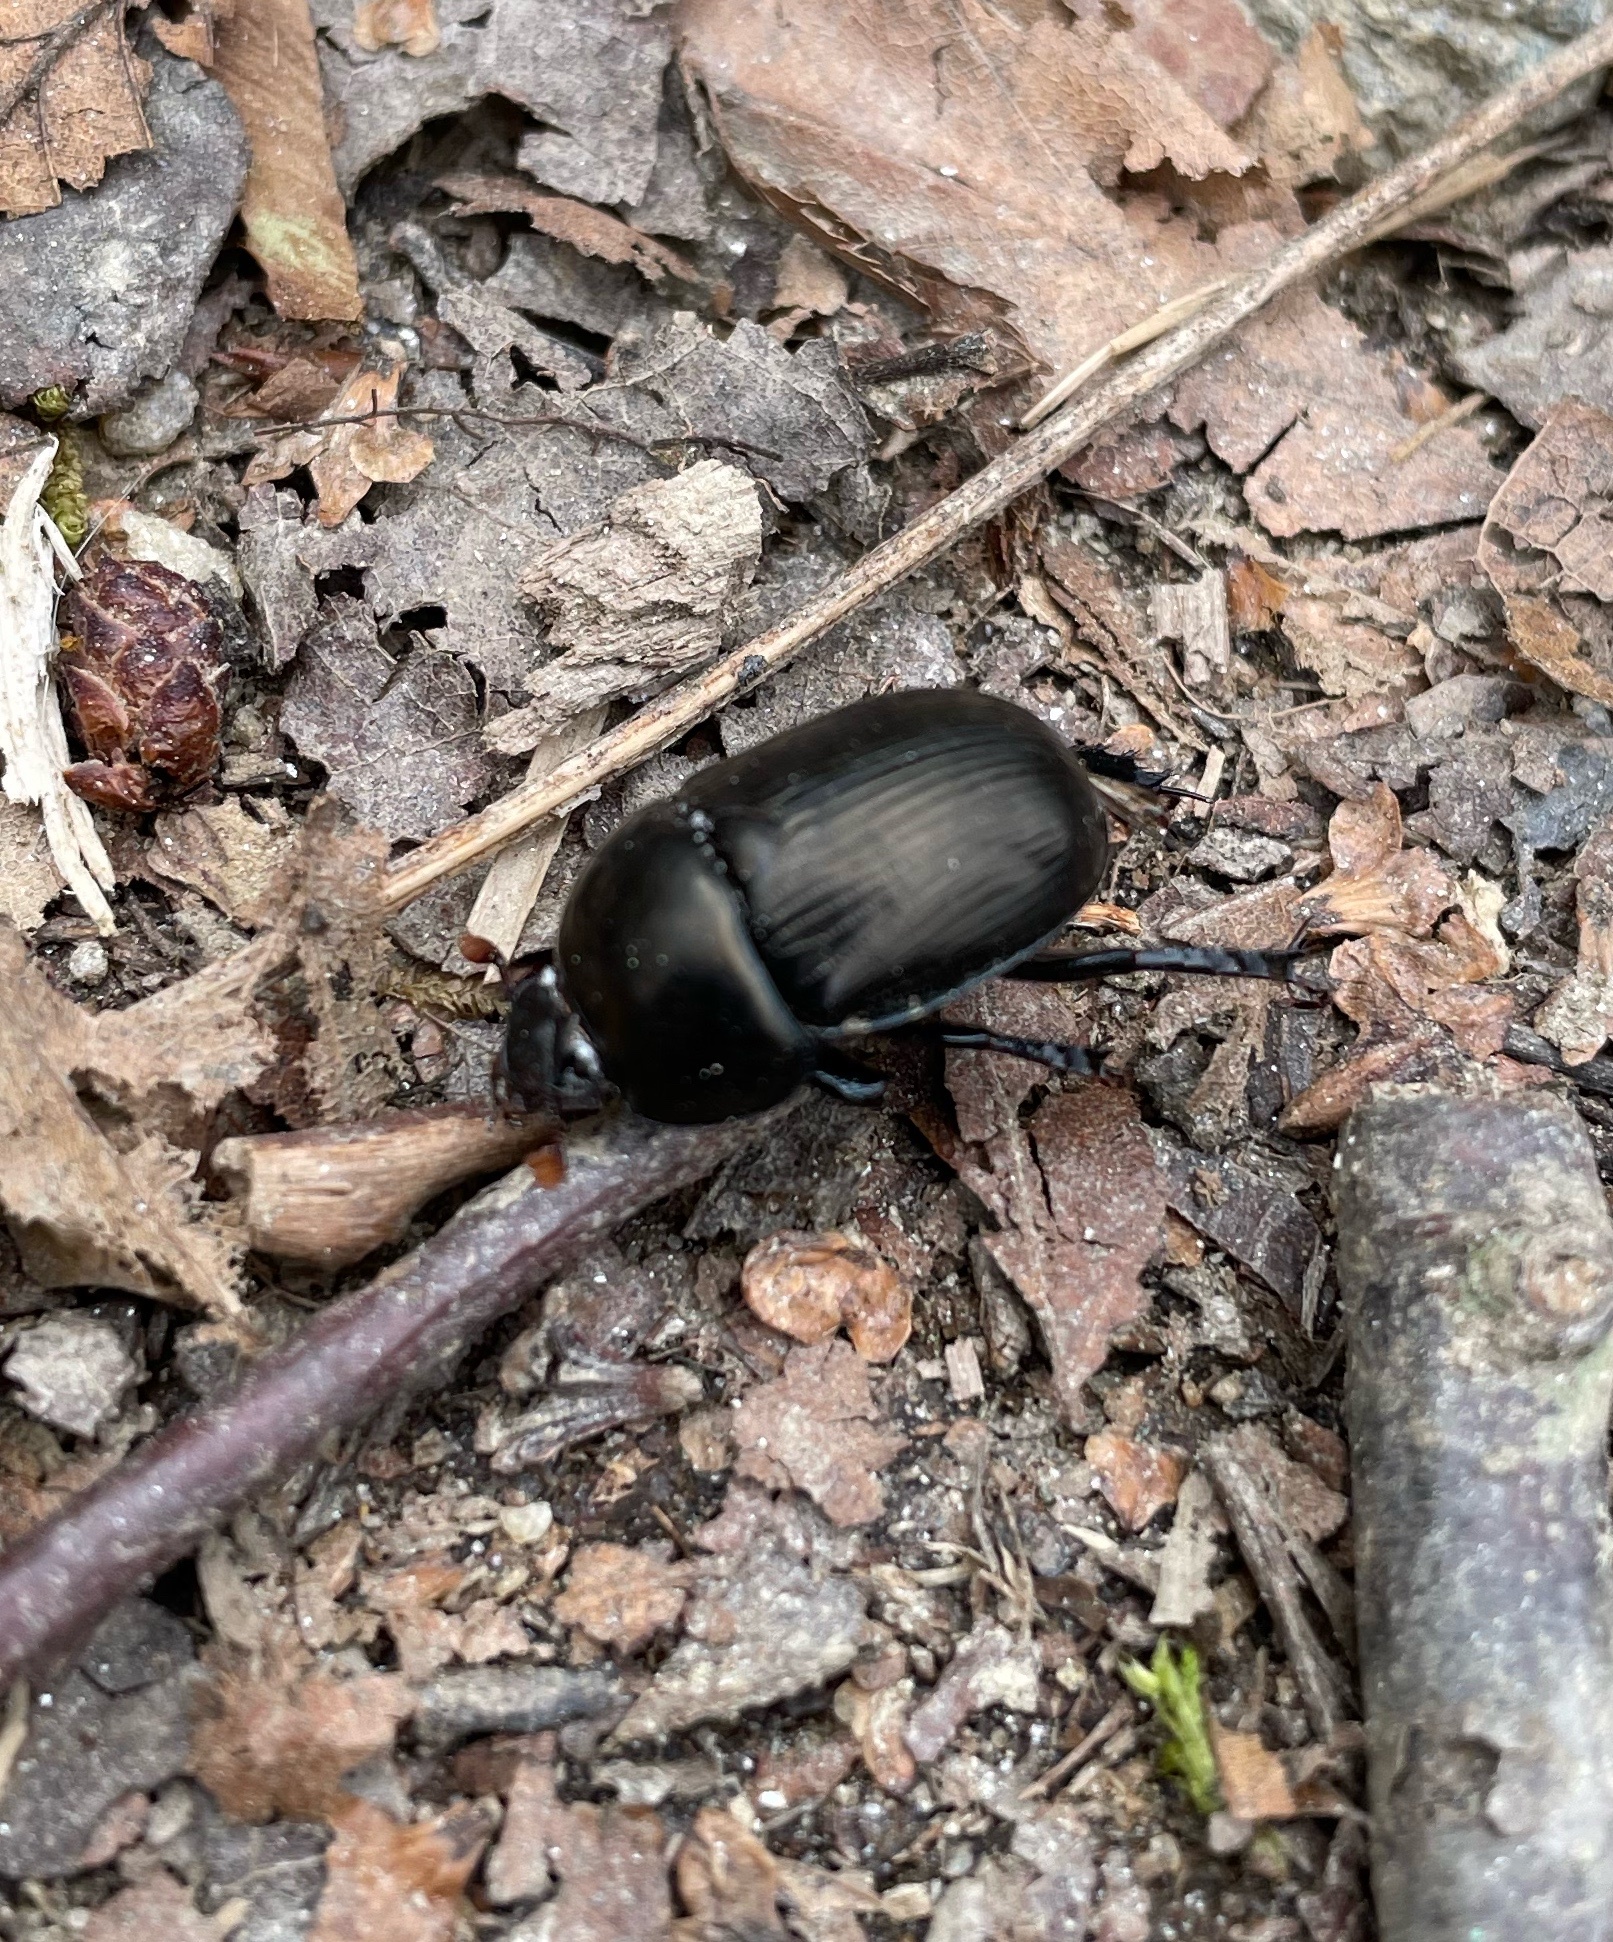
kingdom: Animalia
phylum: Arthropoda
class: Insecta
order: Coleoptera
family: Geotrupidae
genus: Geotrupes
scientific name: Geotrupes
